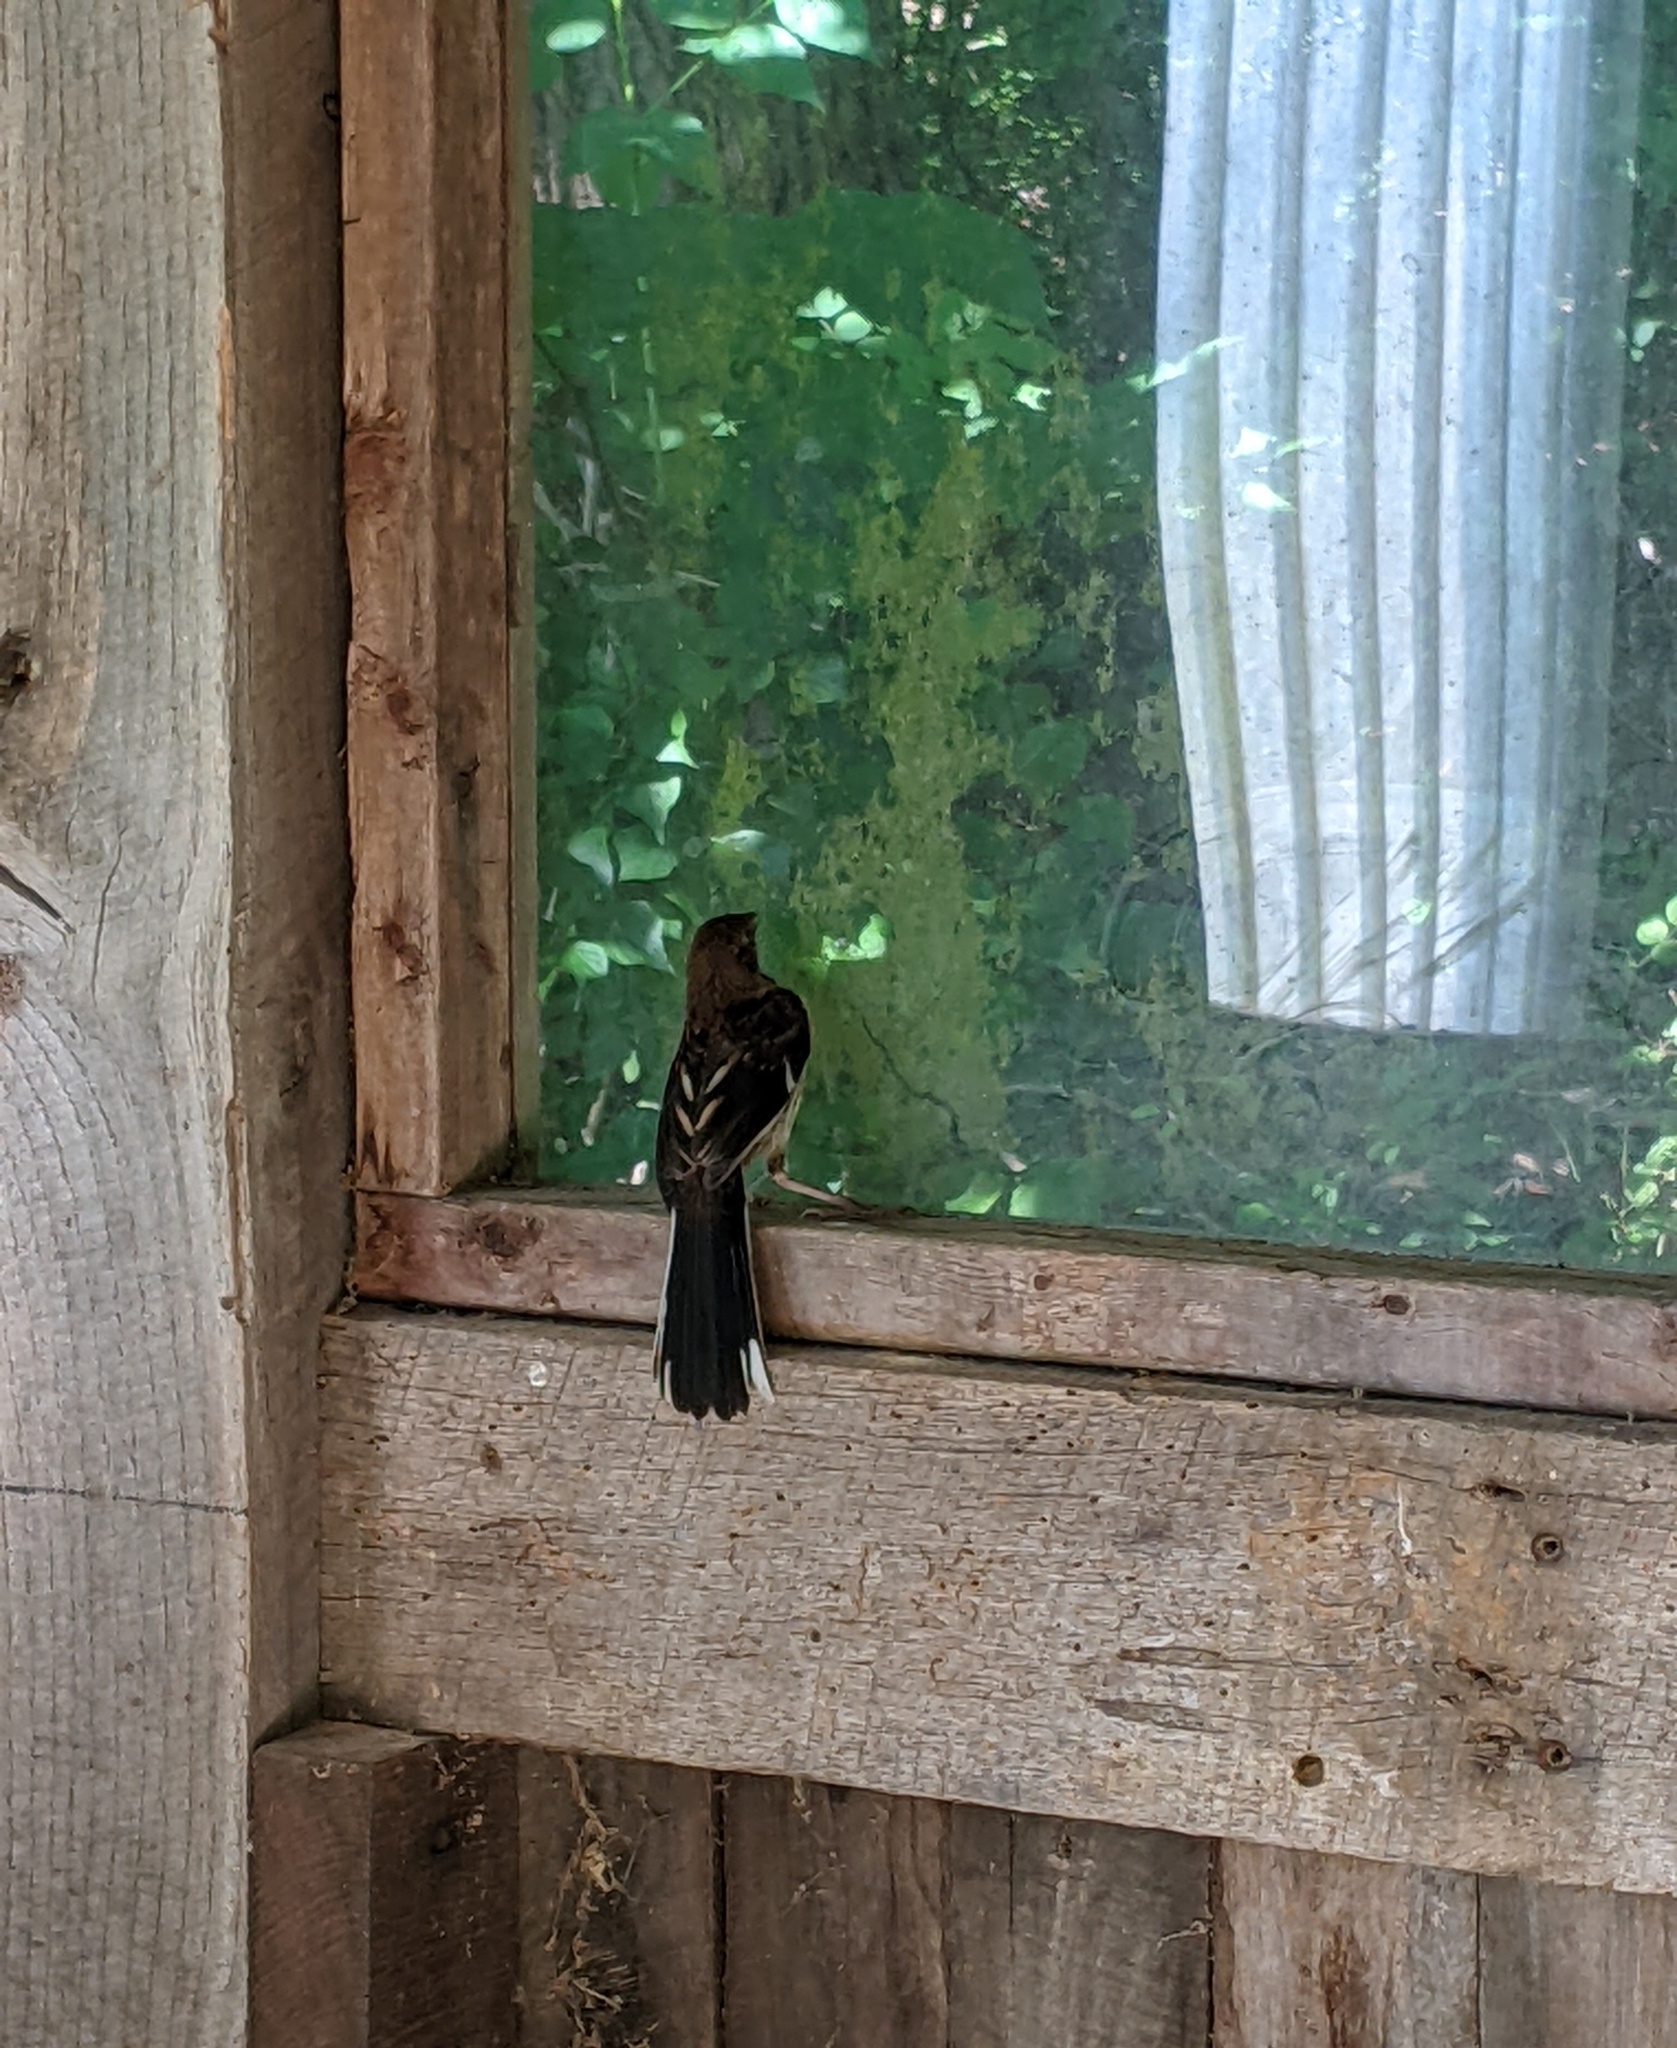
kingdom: Animalia
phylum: Chordata
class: Aves
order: Passeriformes
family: Passerellidae
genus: Pipilo
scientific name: Pipilo erythrophthalmus
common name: Eastern towhee
